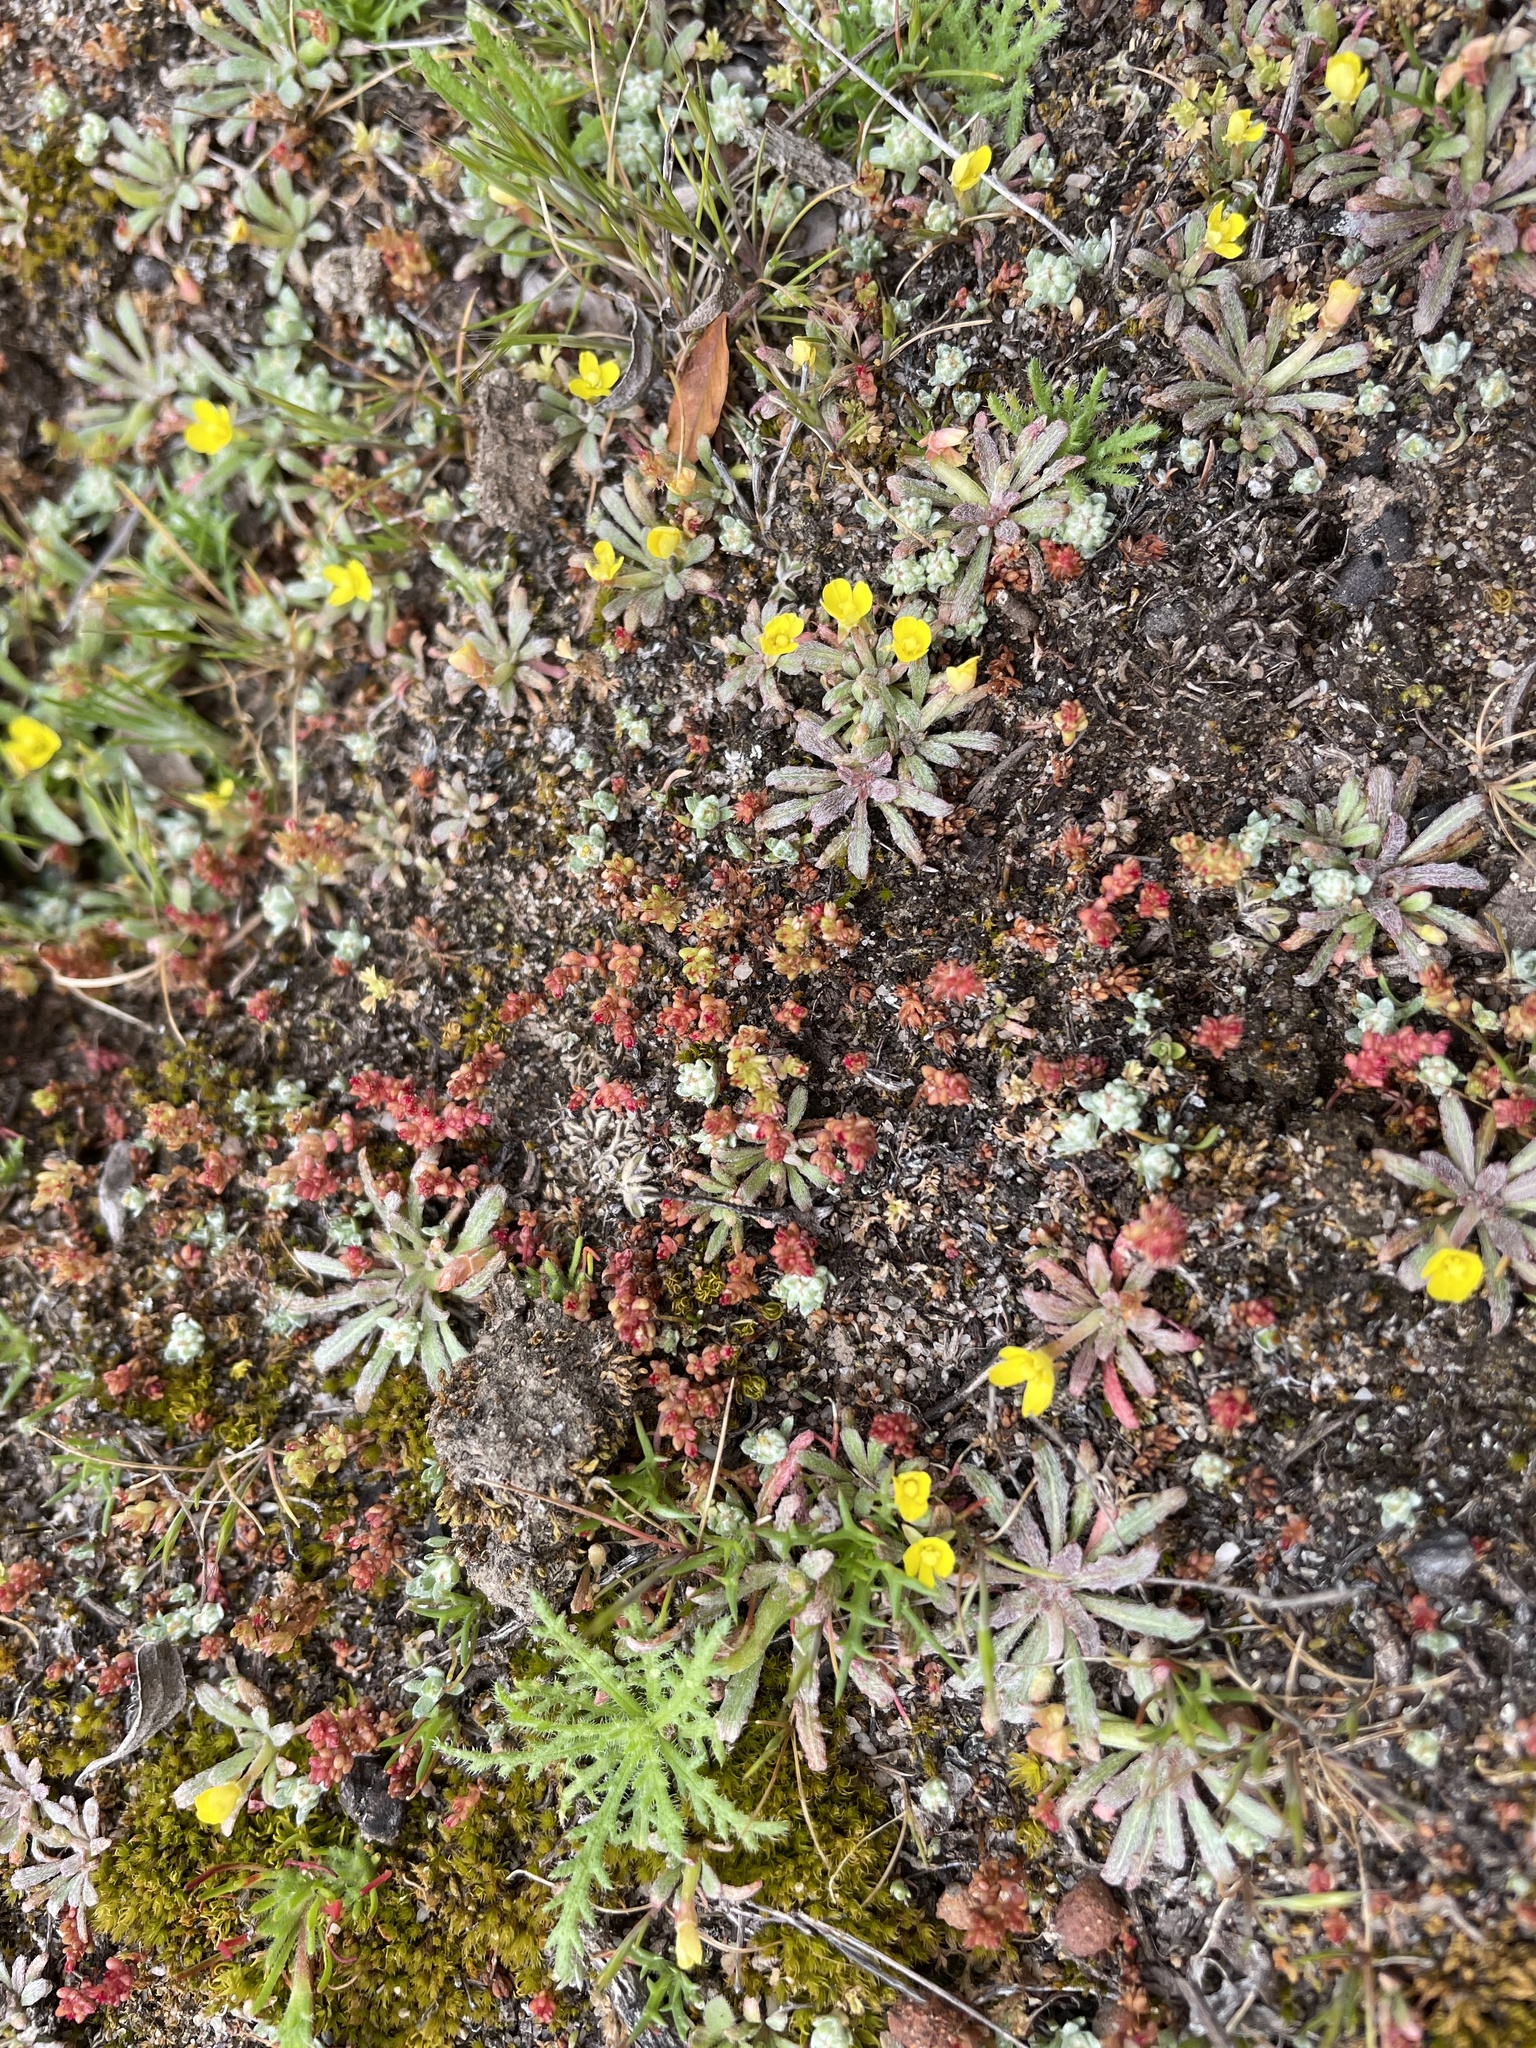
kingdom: Plantae
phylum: Tracheophyta
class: Magnoliopsida
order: Myrtales
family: Onagraceae
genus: Camissoniopsis
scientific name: Camissoniopsis micrantha
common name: Miniature suncup
